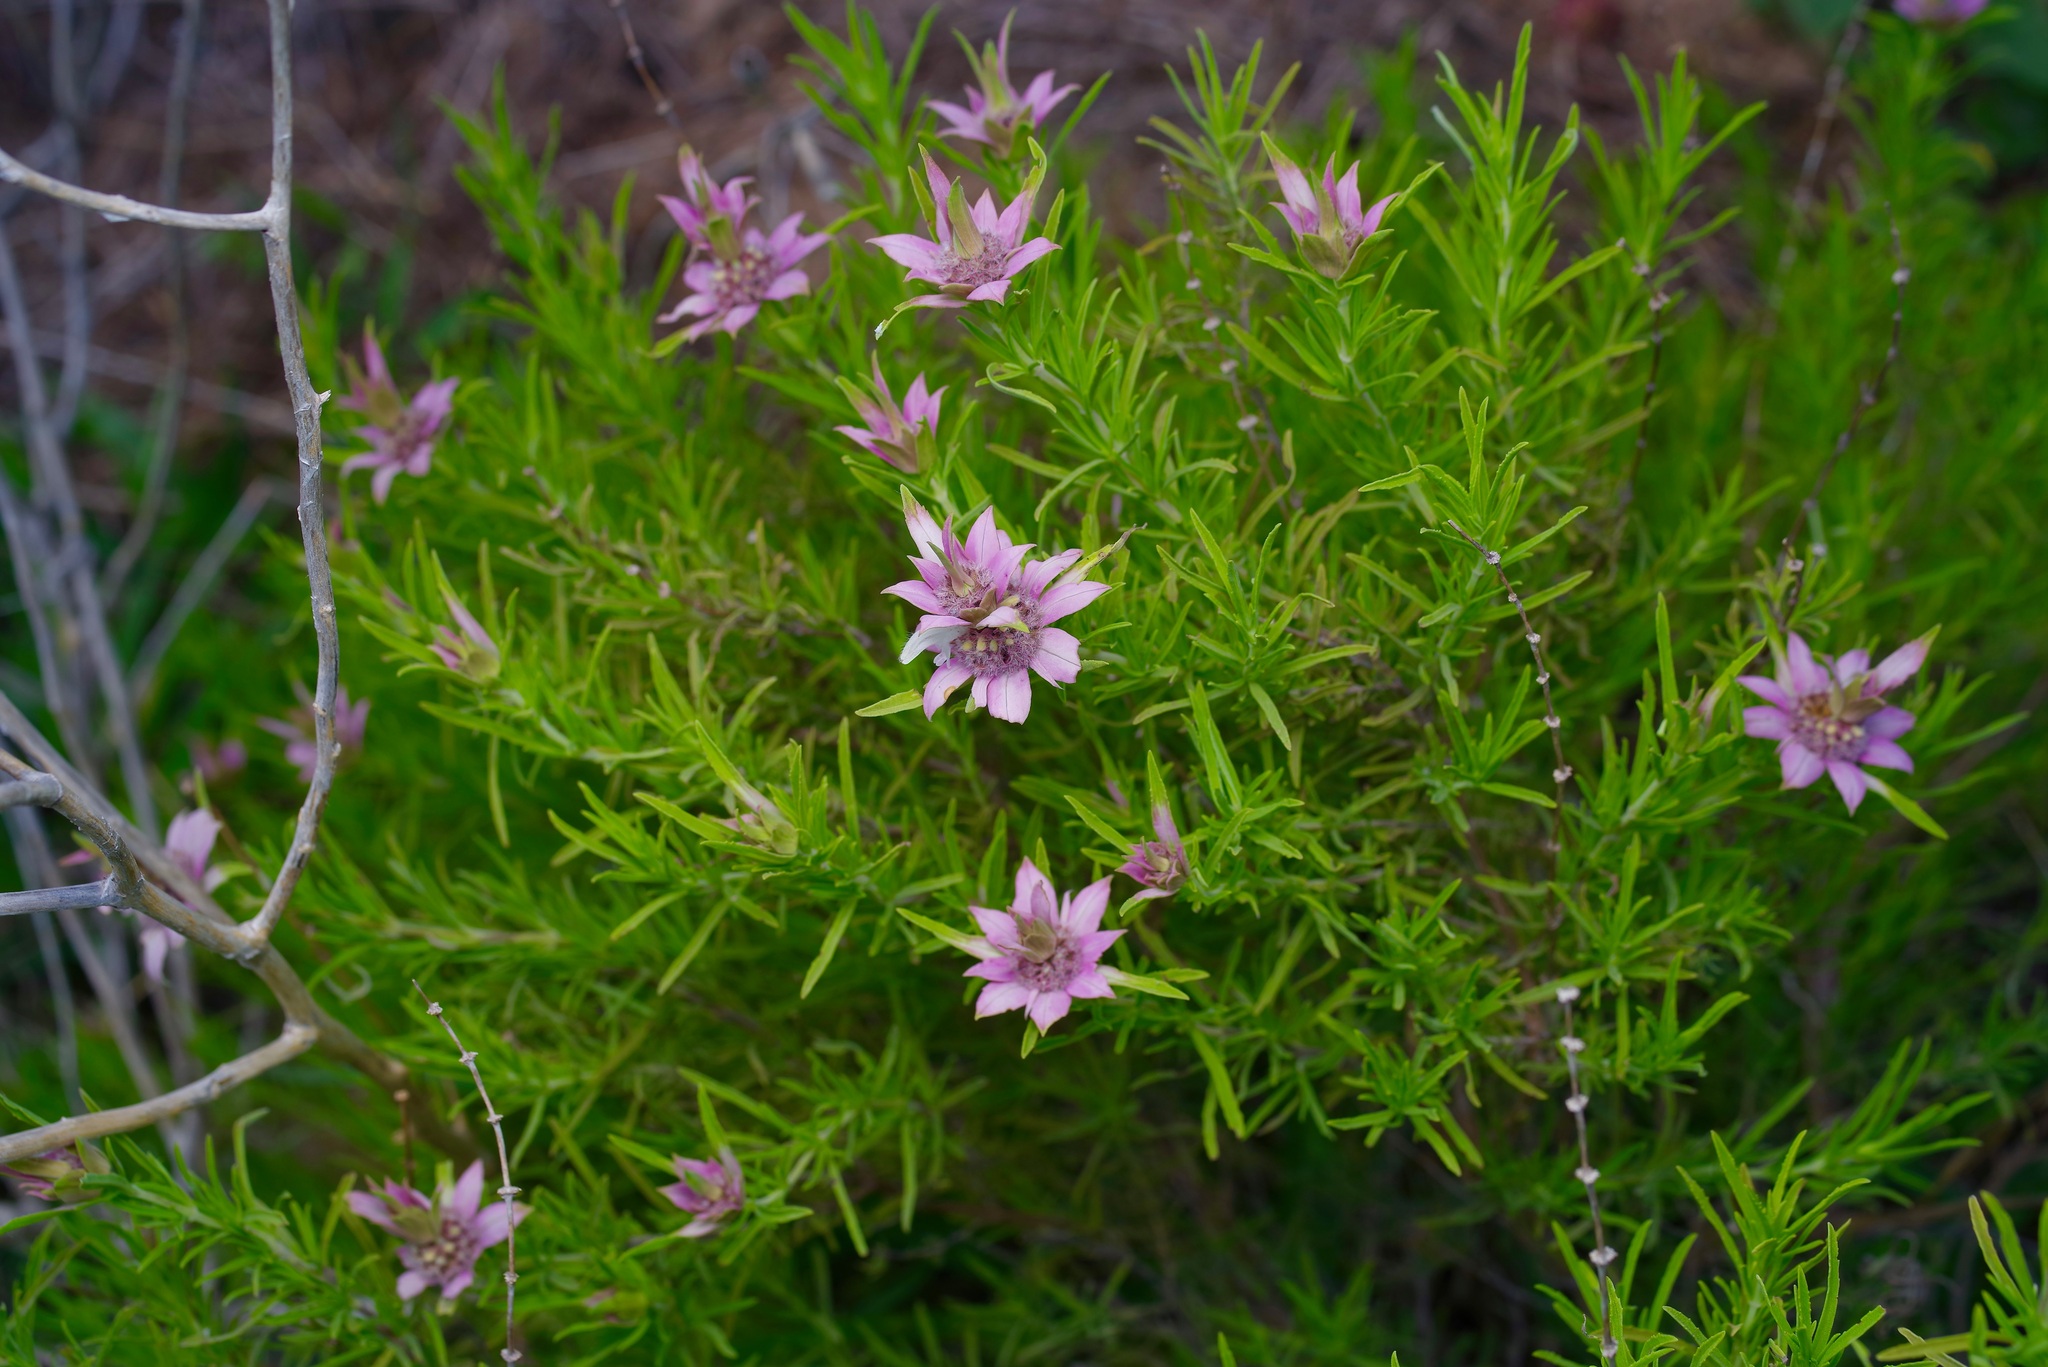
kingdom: Plantae
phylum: Tracheophyta
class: Magnoliopsida
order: Lamiales
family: Lamiaceae
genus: Monarda
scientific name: Monarda fruticulosa
